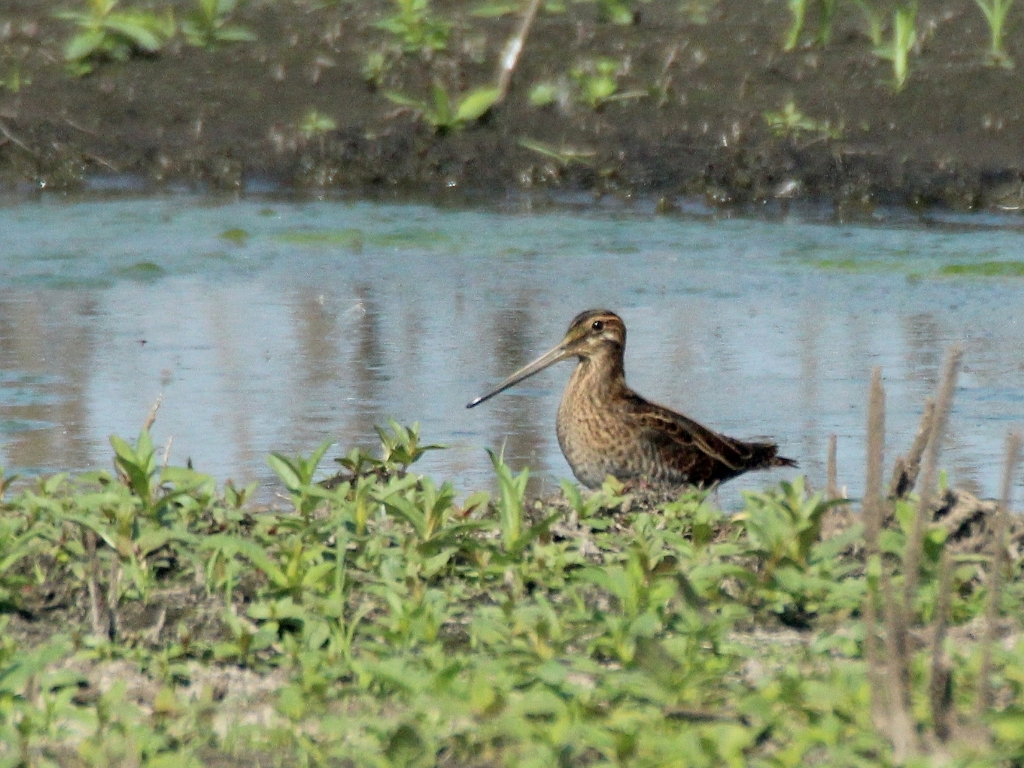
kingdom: Animalia
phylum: Chordata
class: Aves
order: Charadriiformes
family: Scolopacidae
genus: Gallinago
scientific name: Gallinago gallinago
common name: Common snipe
